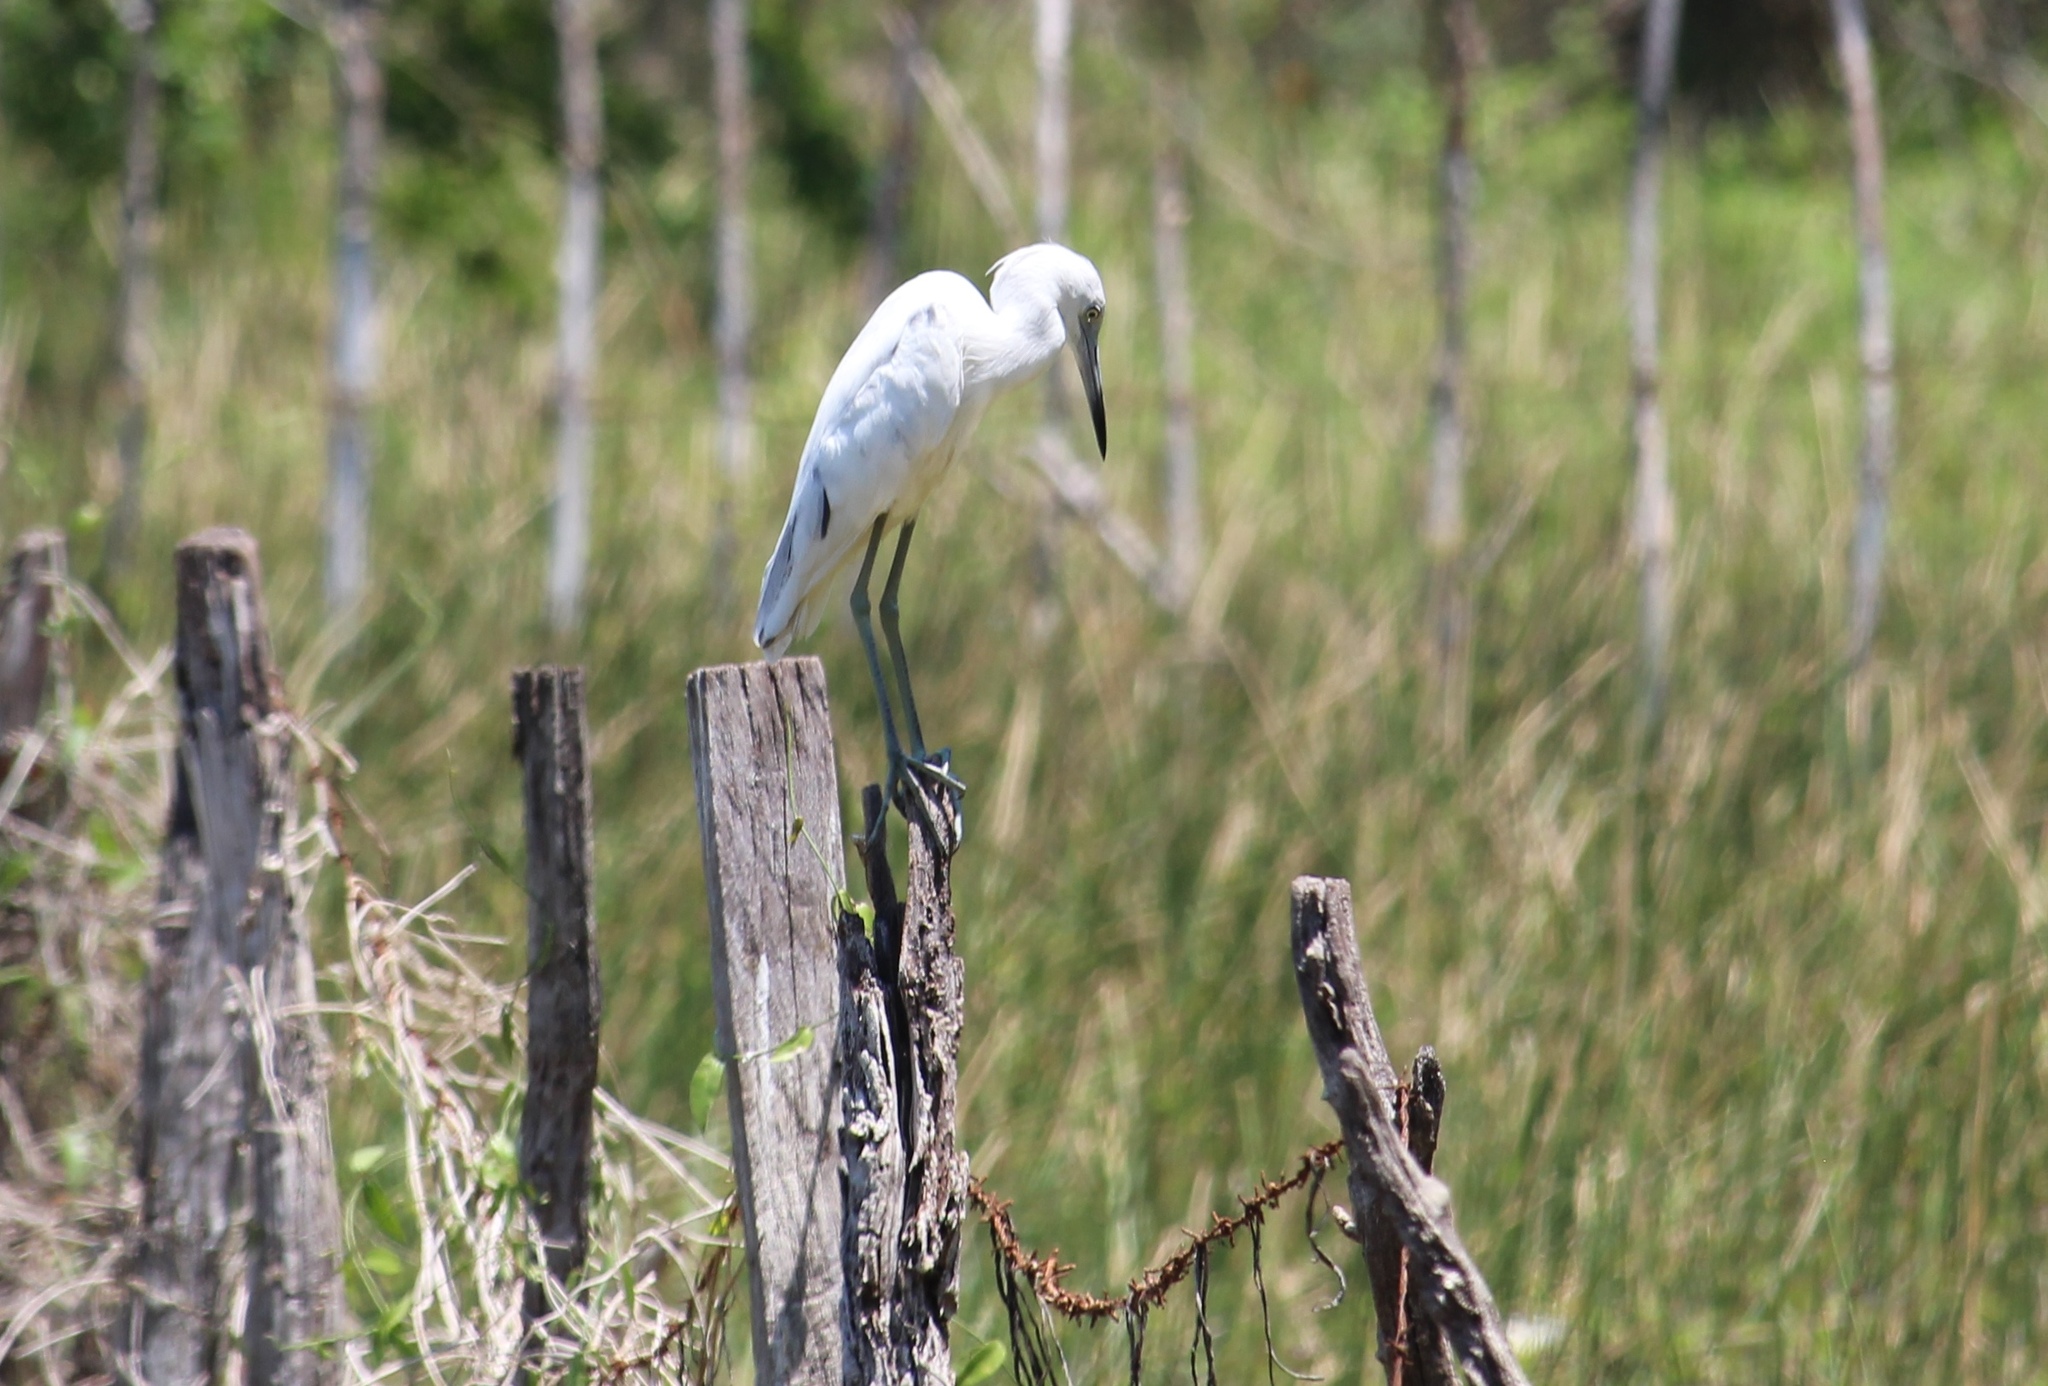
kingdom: Animalia
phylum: Chordata
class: Aves
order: Pelecaniformes
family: Ardeidae
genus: Egretta
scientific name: Egretta caerulea
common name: Little blue heron
